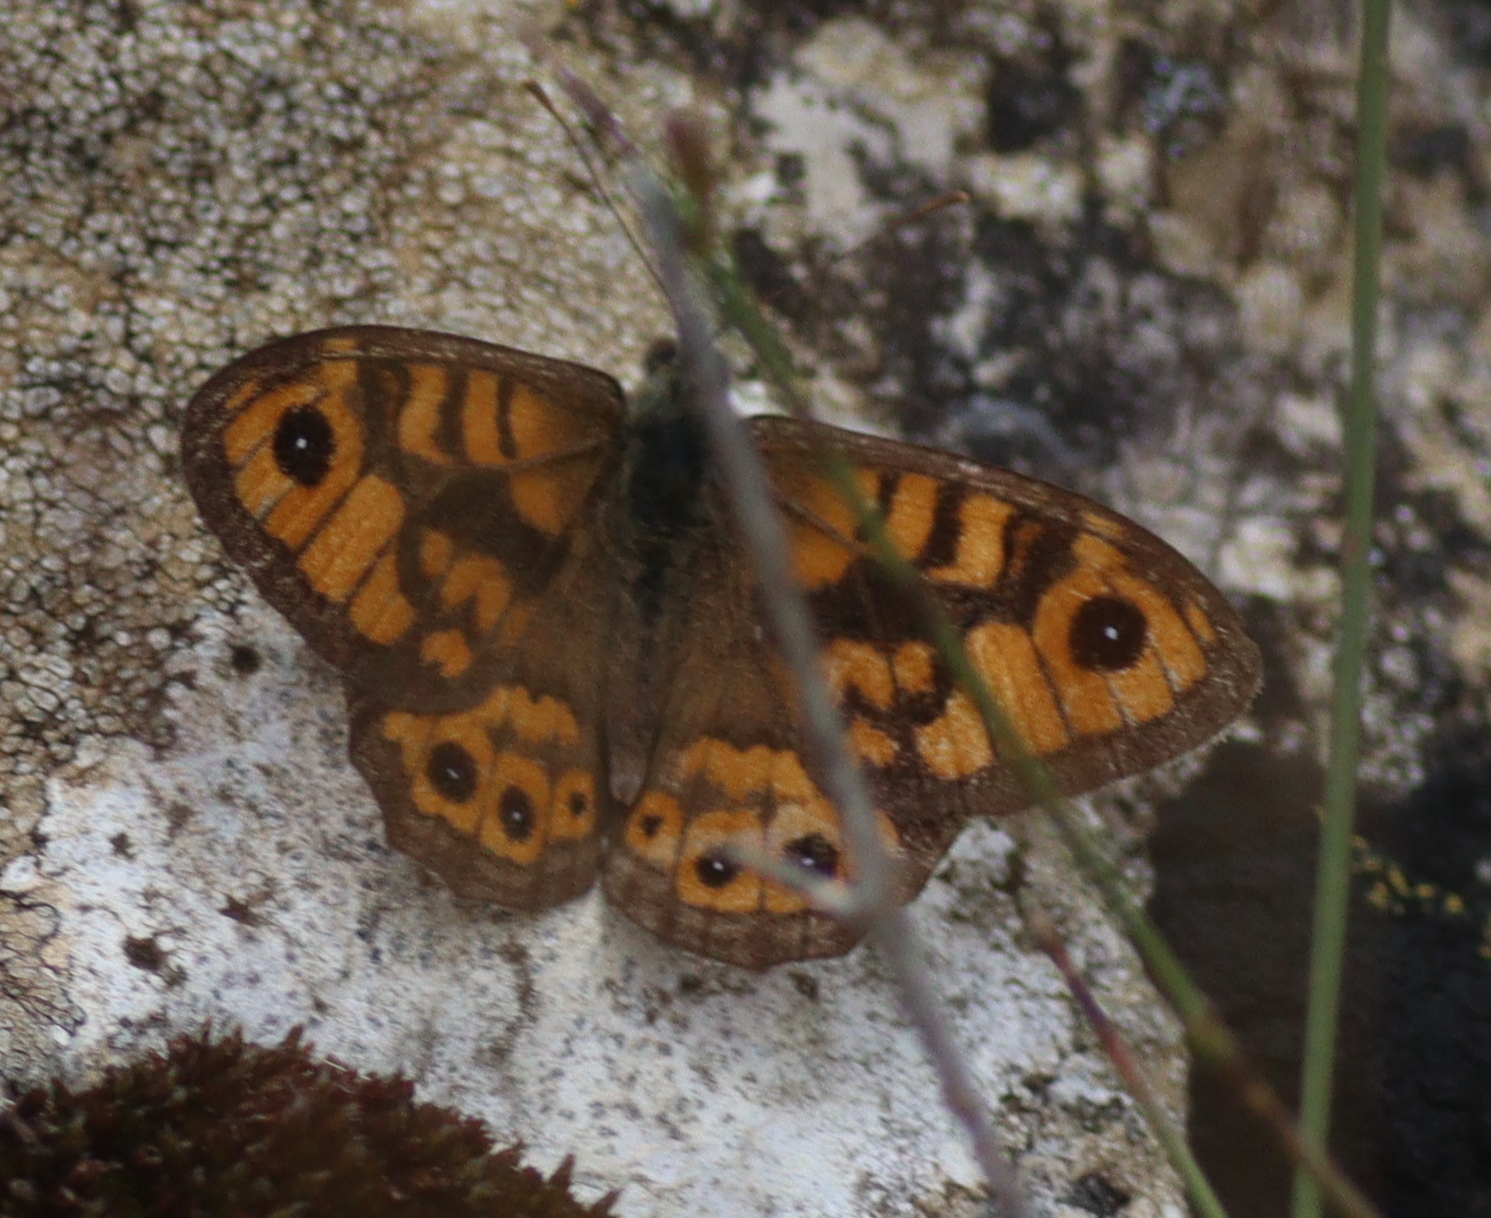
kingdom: Animalia
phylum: Arthropoda
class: Insecta
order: Lepidoptera
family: Nymphalidae
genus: Pararge
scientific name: Pararge Lasiommata megera
